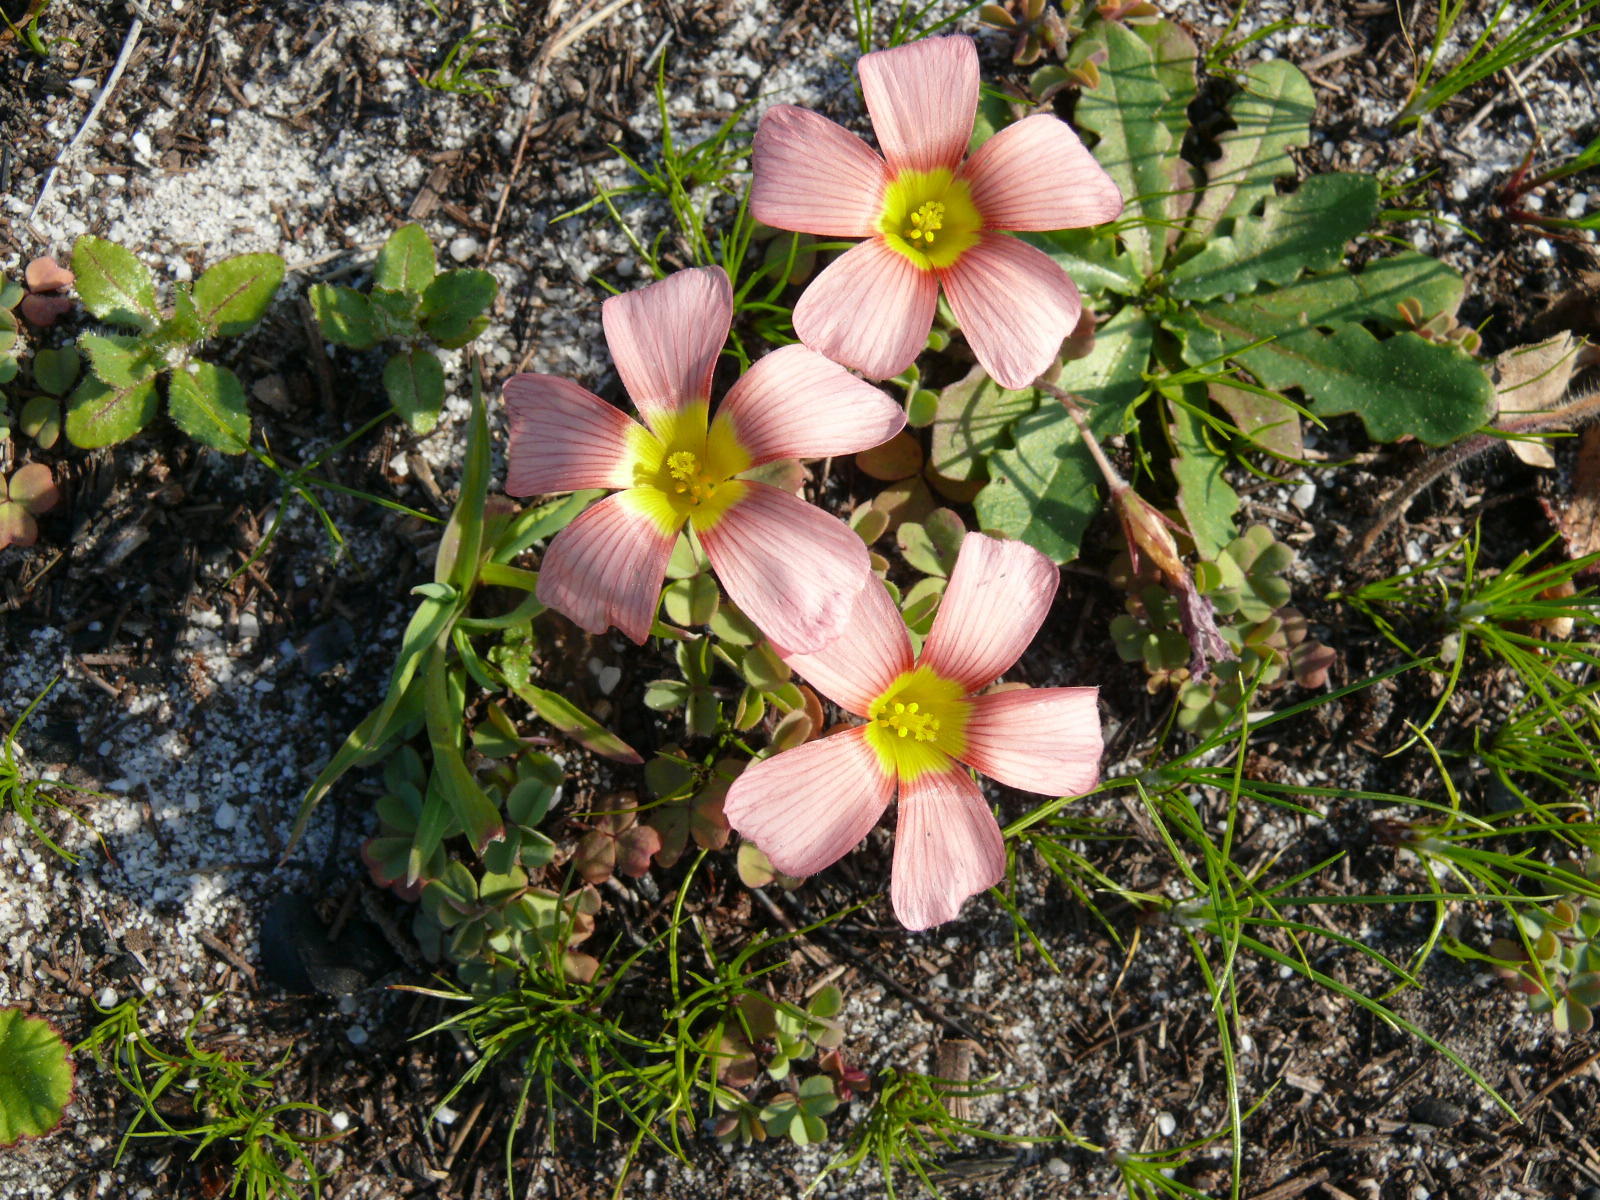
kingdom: Plantae
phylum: Tracheophyta
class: Magnoliopsida
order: Oxalidales
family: Oxalidaceae
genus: Oxalis
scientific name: Oxalis obtusa
